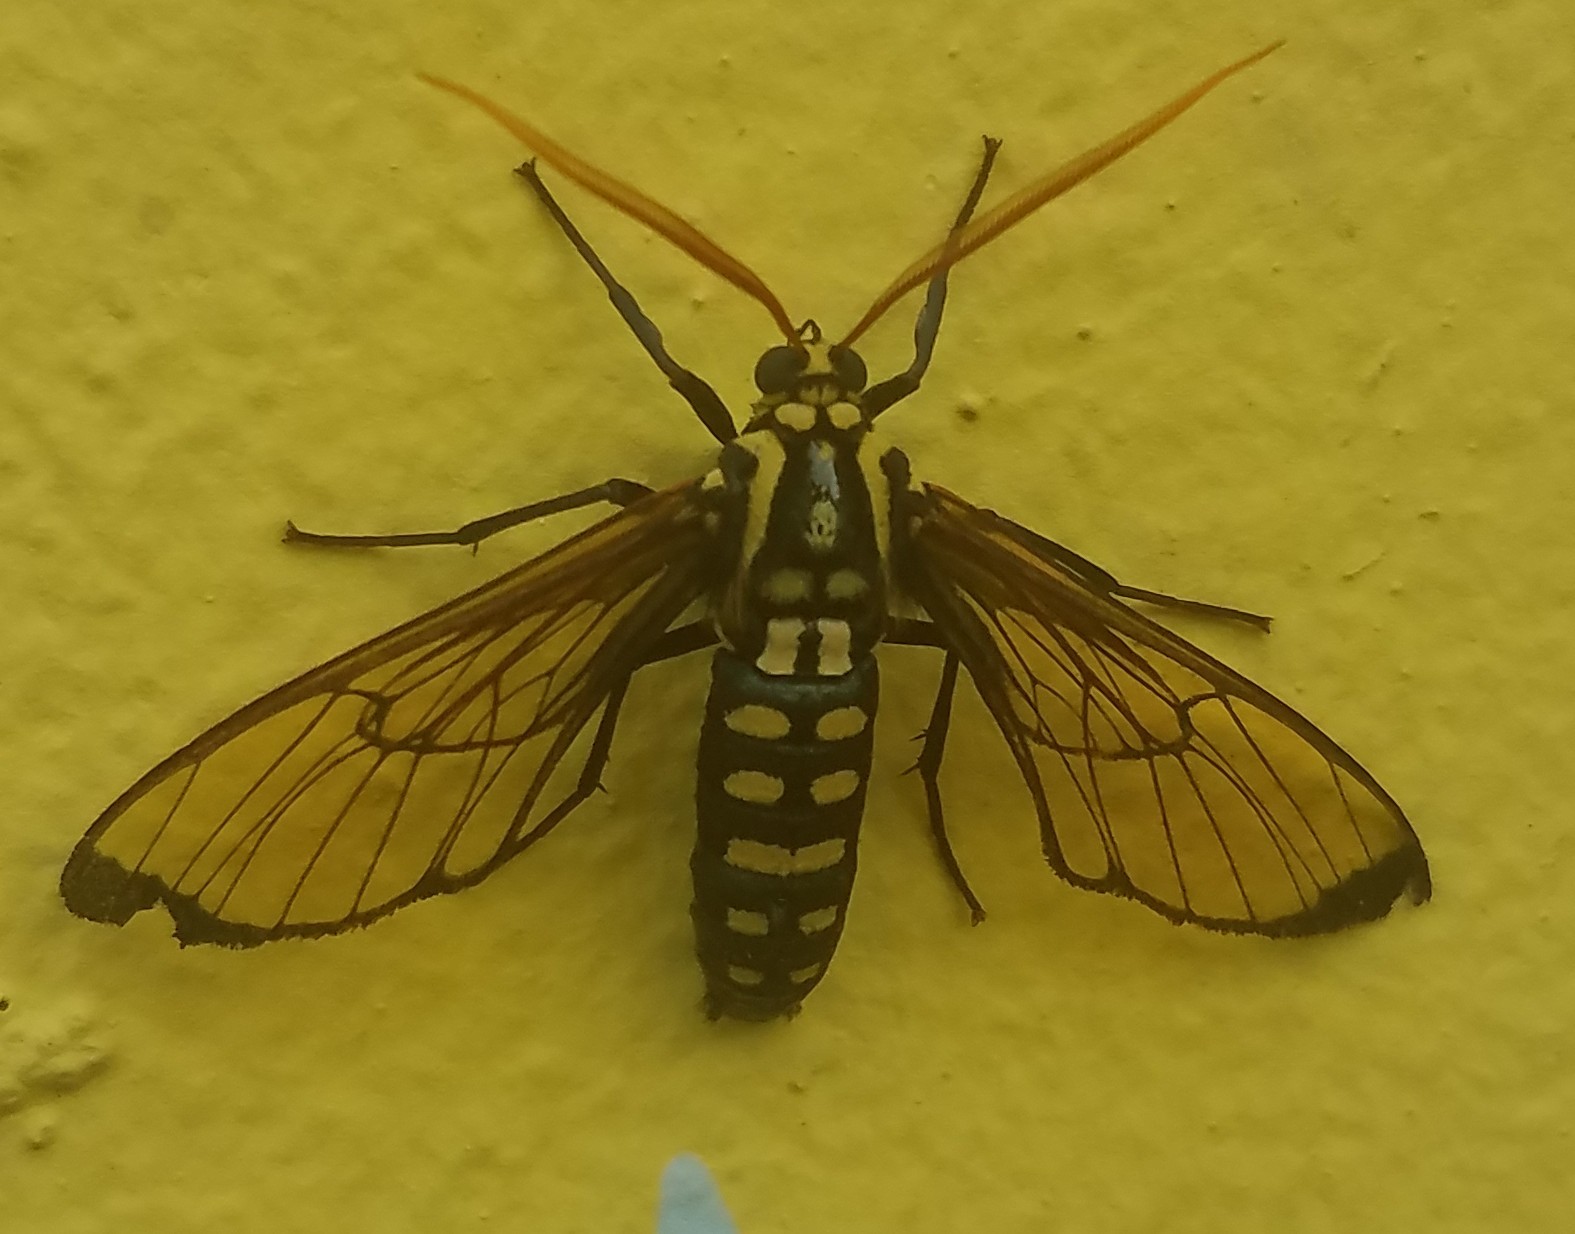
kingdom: Animalia
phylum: Arthropoda
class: Insecta
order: Lepidoptera
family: Erebidae
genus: Isanthrene
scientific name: Isanthrene cazador
